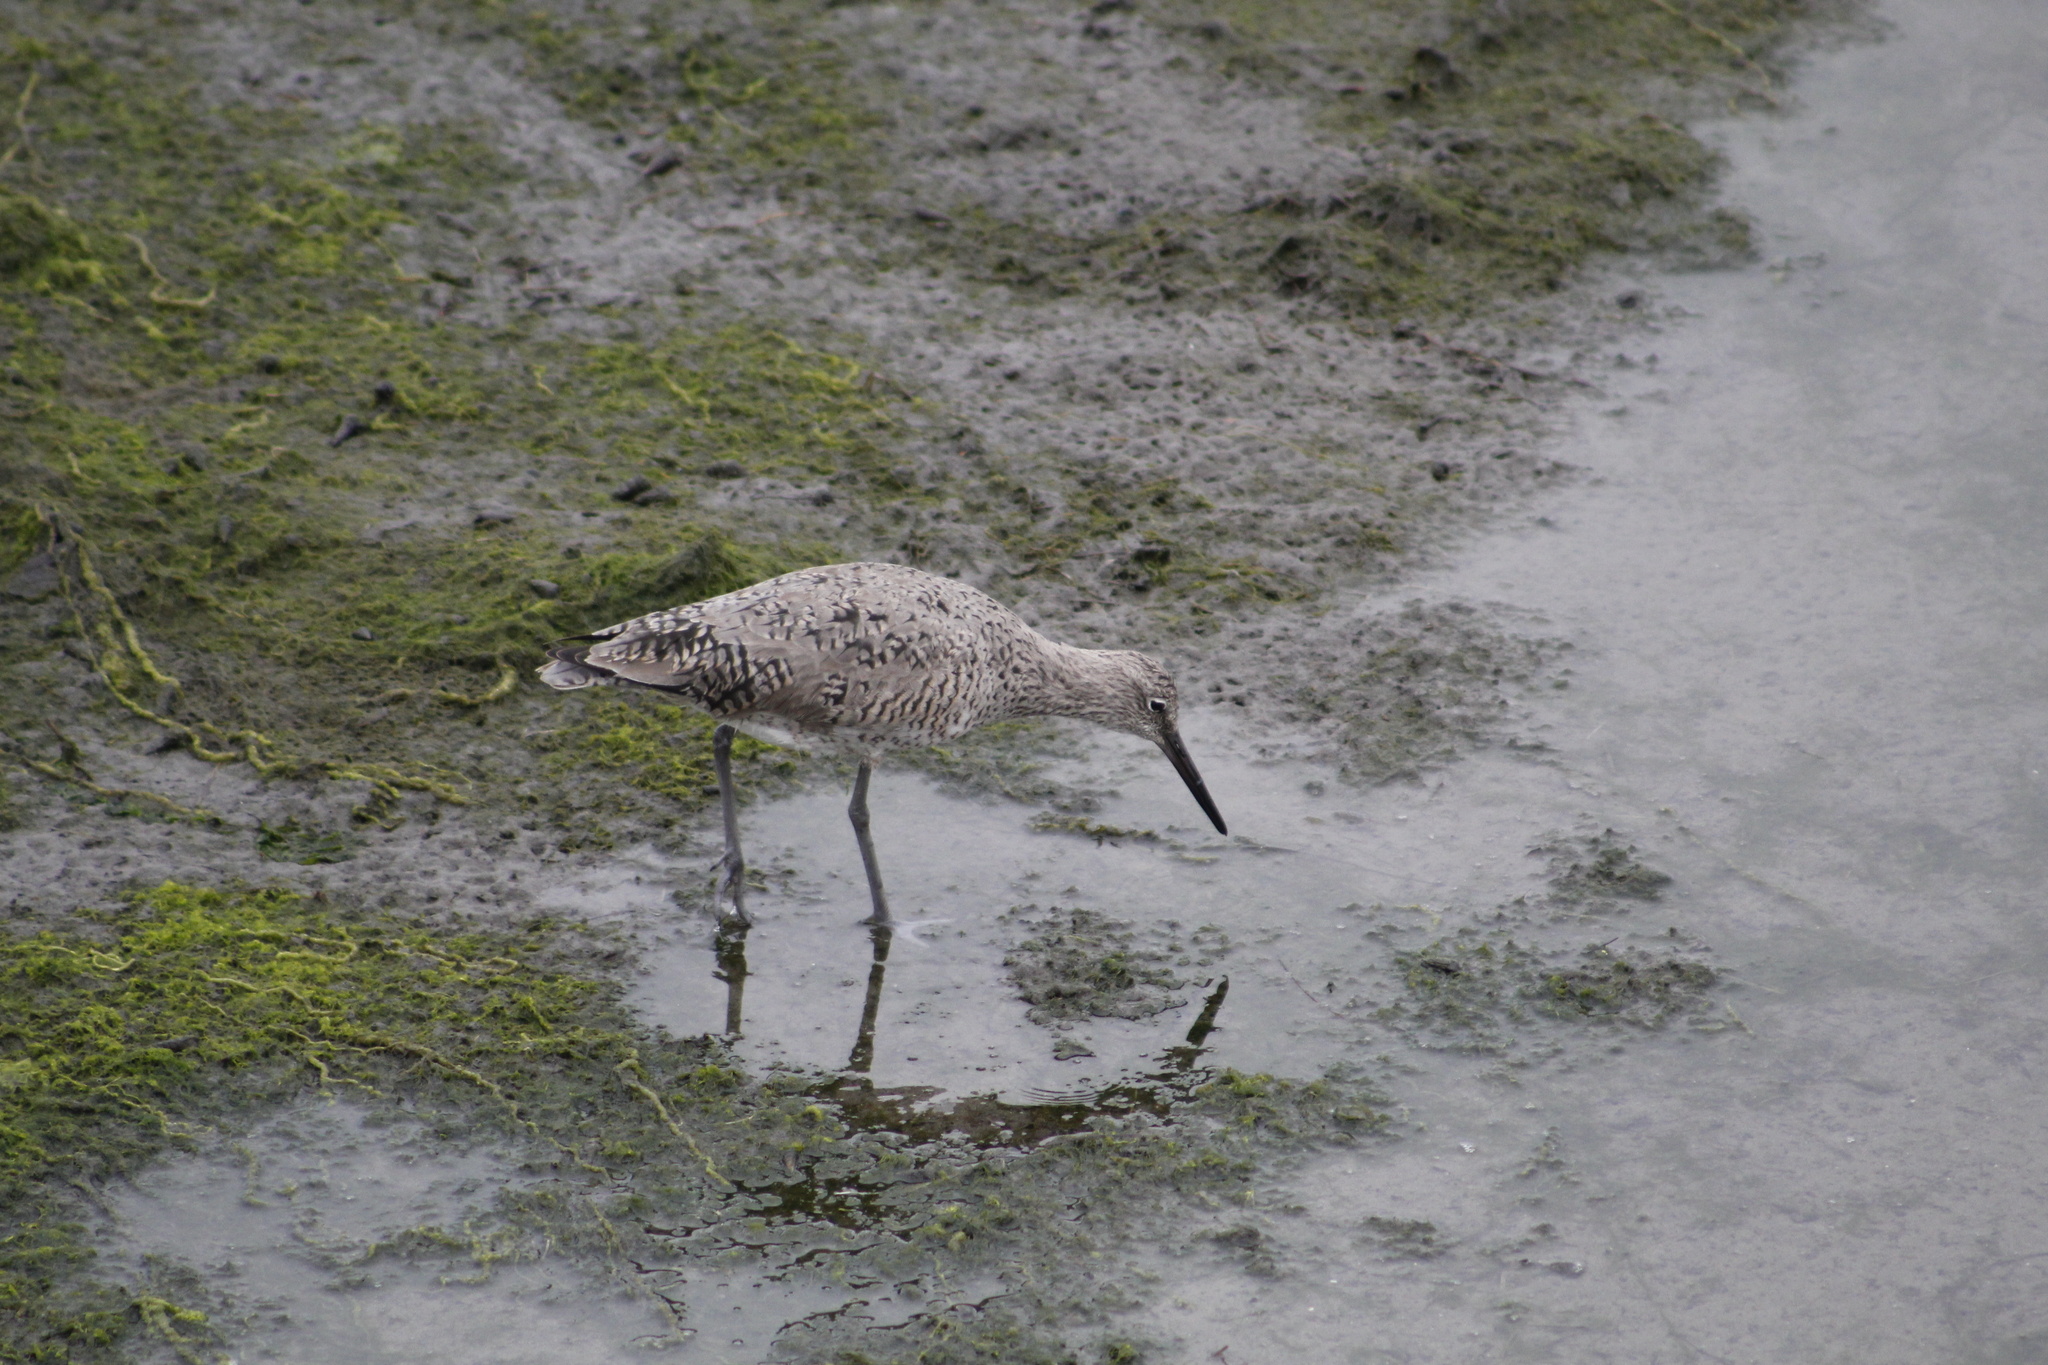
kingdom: Animalia
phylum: Chordata
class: Aves
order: Charadriiformes
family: Scolopacidae
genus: Tringa
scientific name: Tringa semipalmata
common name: Willet
